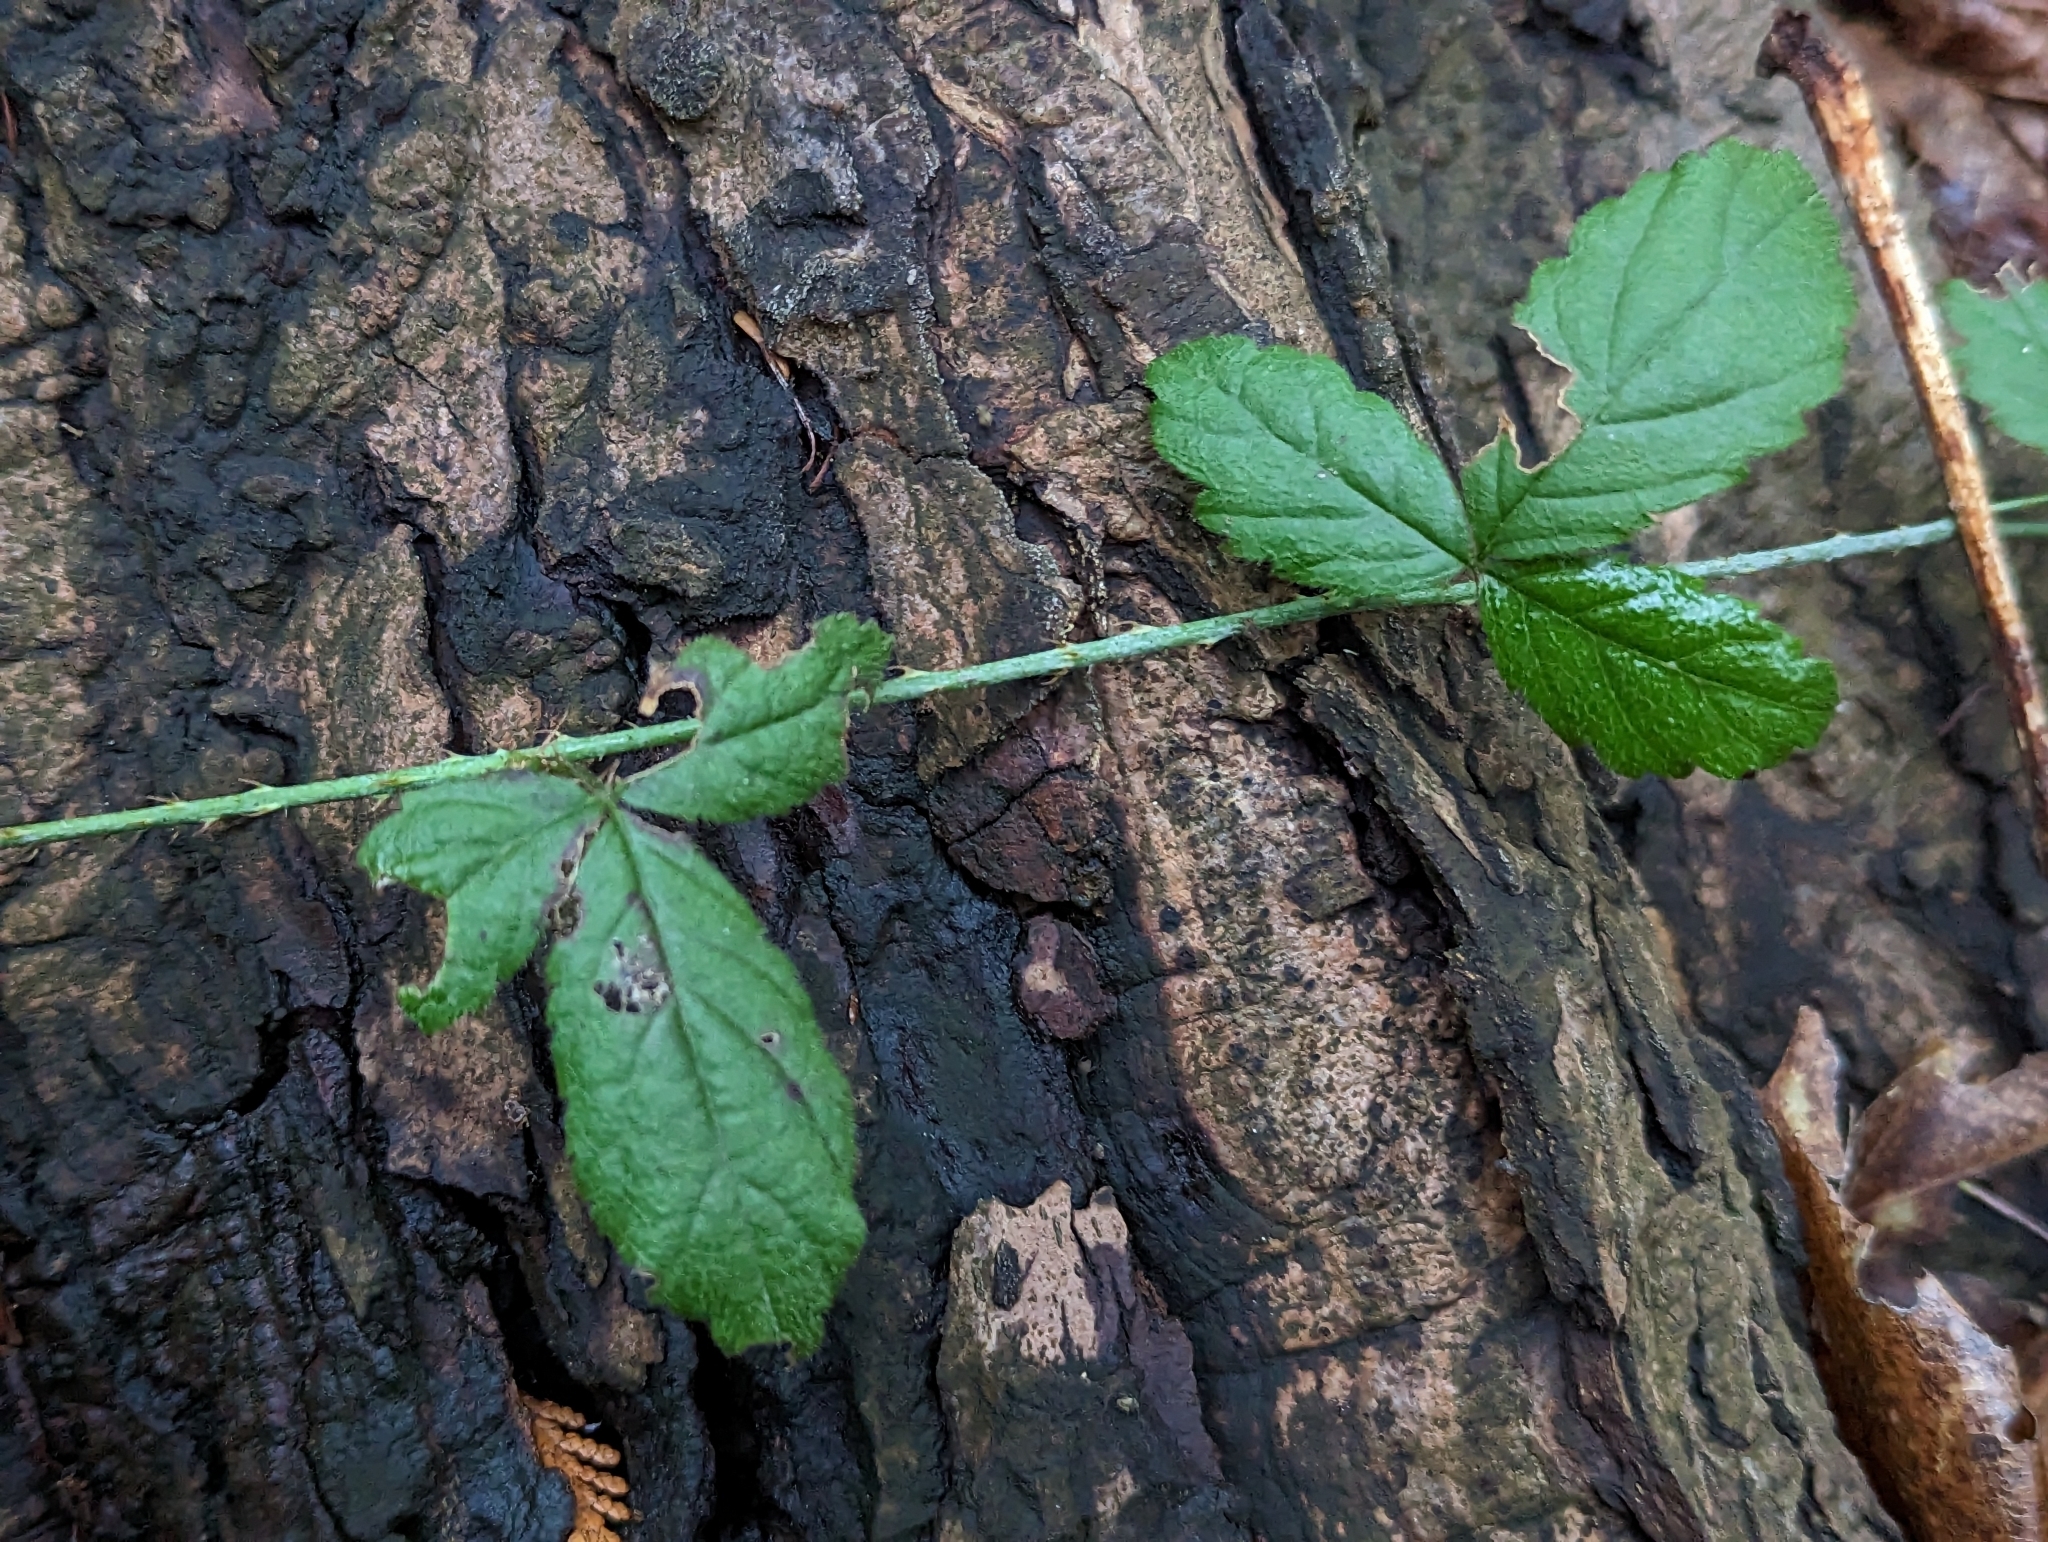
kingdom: Plantae
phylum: Tracheophyta
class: Magnoliopsida
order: Rosales
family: Rosaceae
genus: Rubus
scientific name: Rubus ursinus
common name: Pacific blackberry
